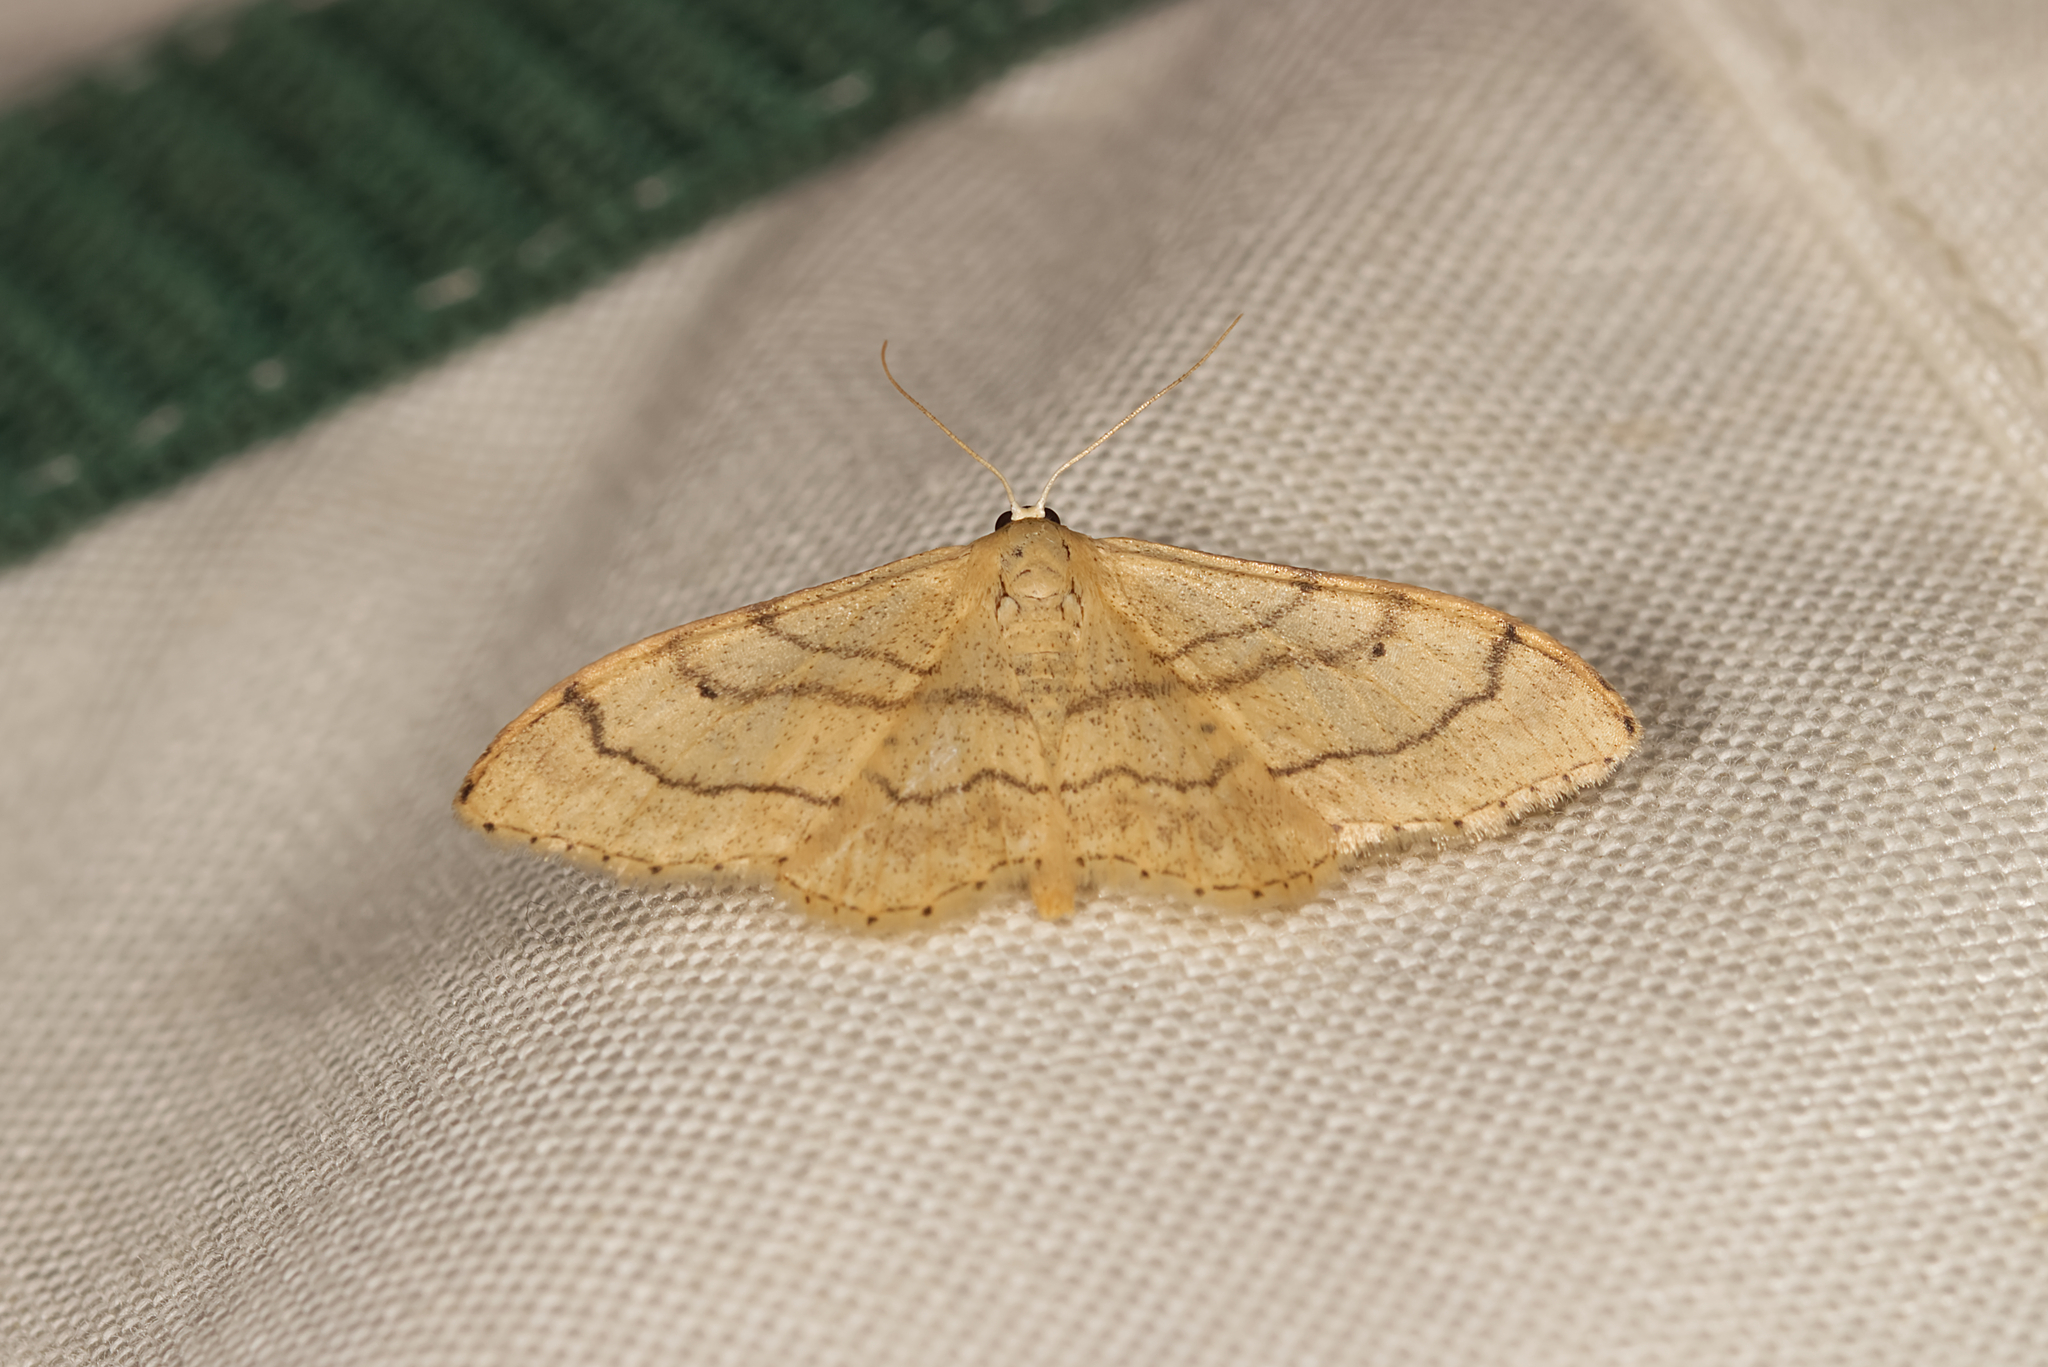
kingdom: Animalia
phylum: Arthropoda
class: Insecta
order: Lepidoptera
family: Geometridae
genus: Idaea
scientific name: Idaea aversata
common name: Riband wave
